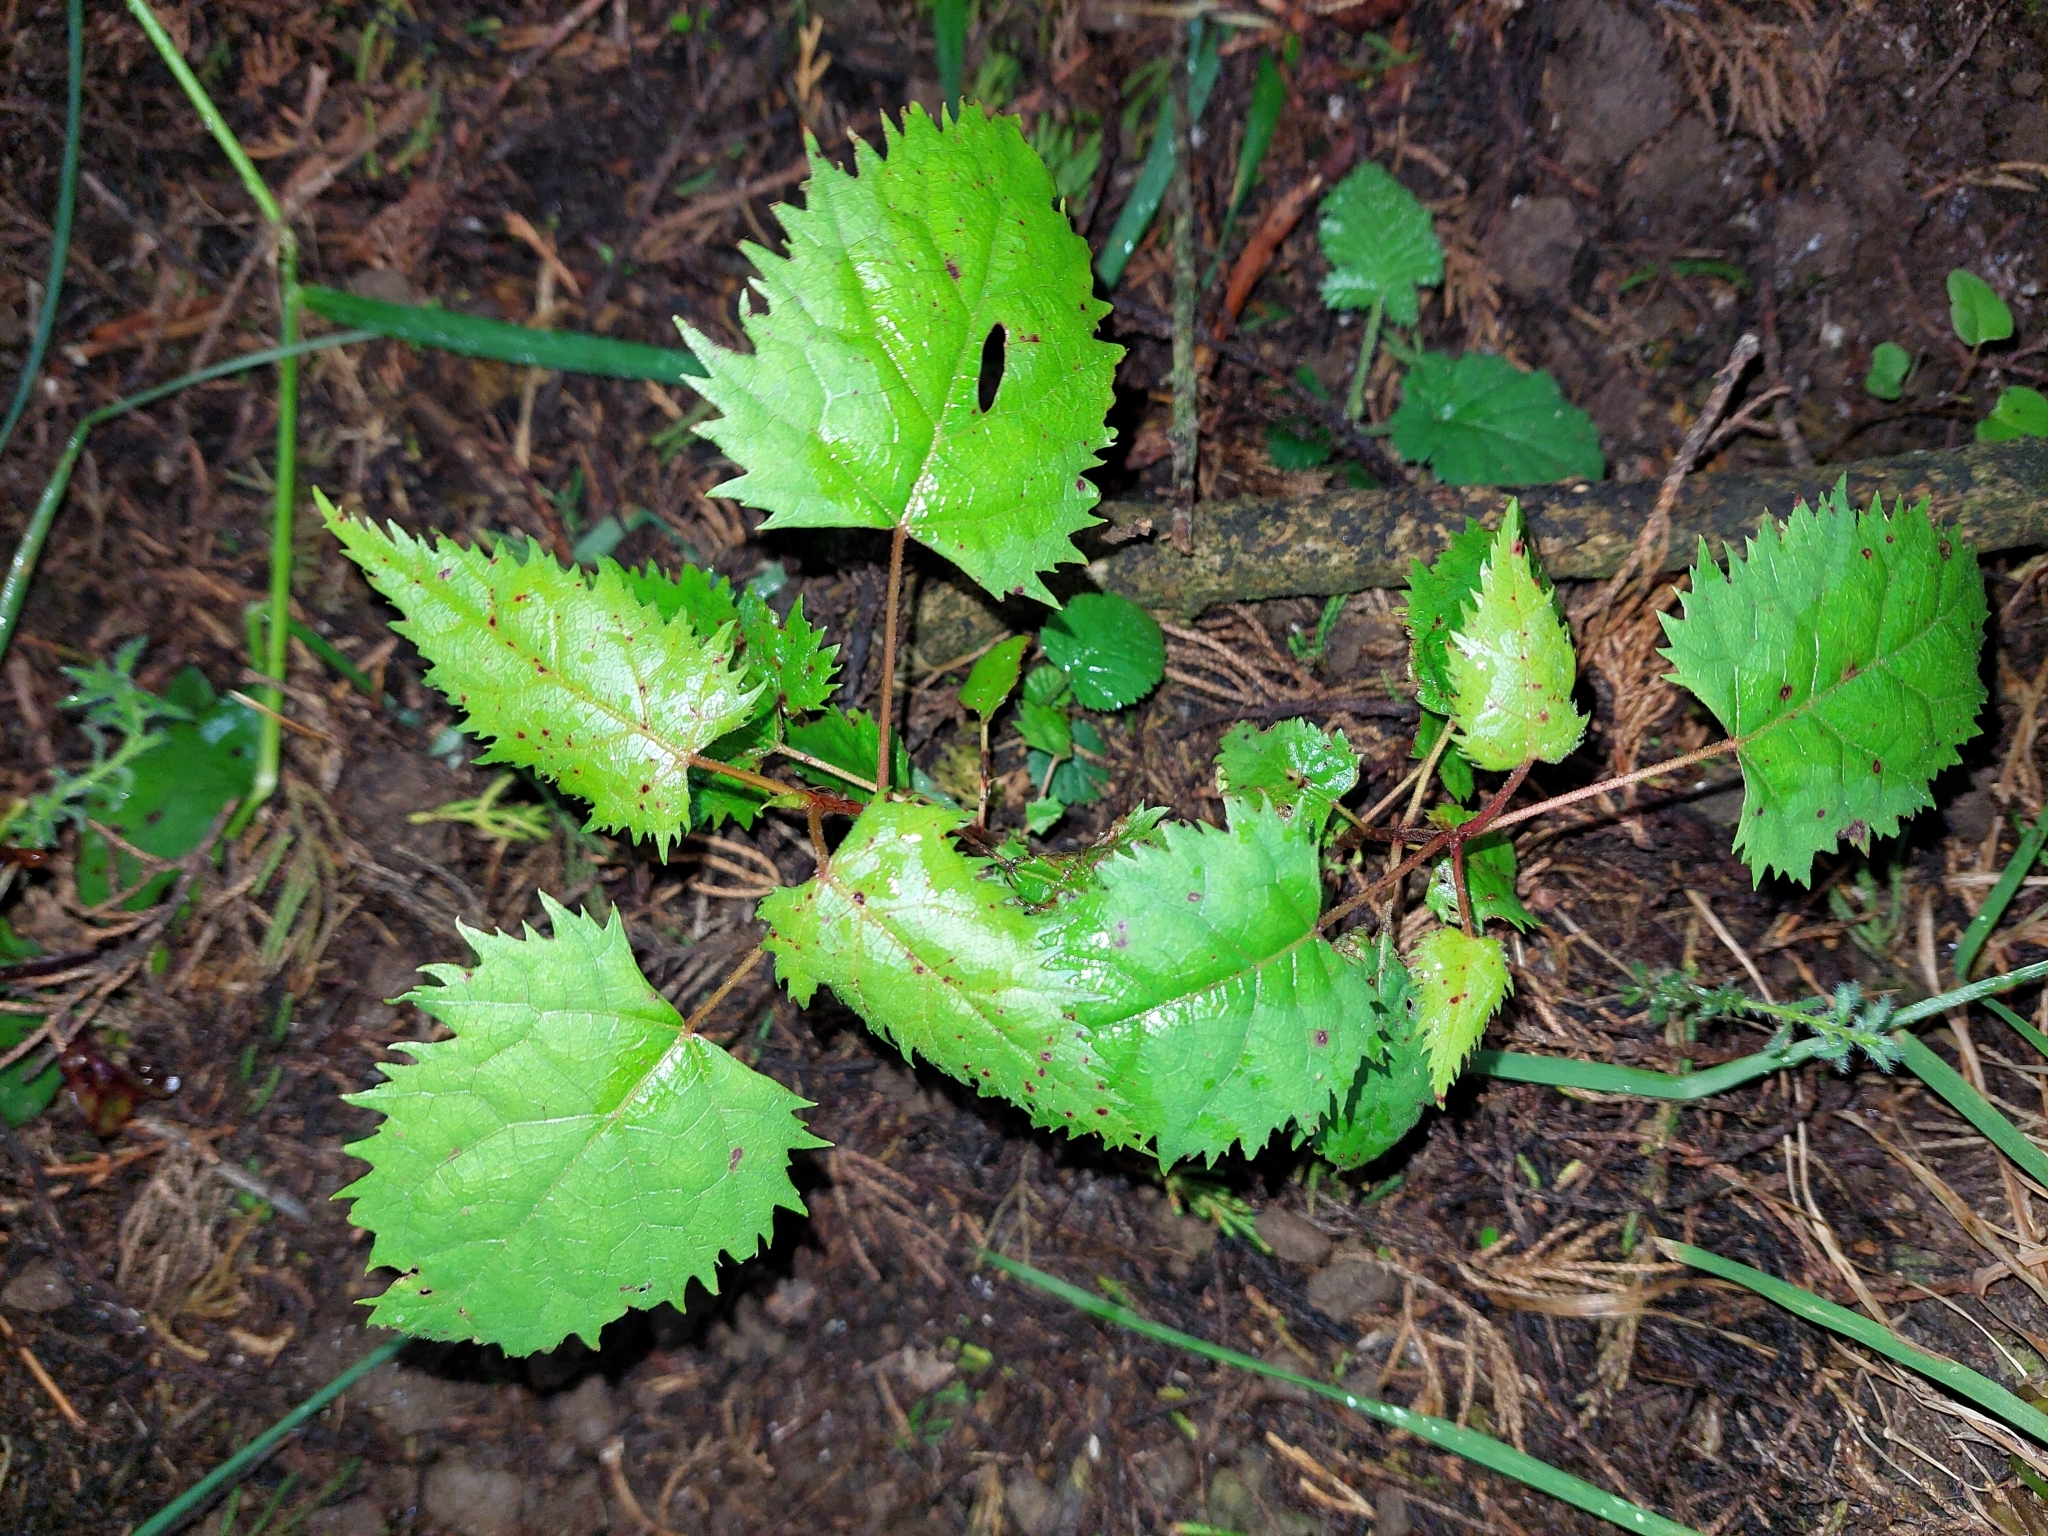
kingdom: Plantae
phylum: Tracheophyta
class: Magnoliopsida
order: Oxalidales
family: Elaeocarpaceae
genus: Aristotelia
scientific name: Aristotelia serrata
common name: New zealand wineberry
